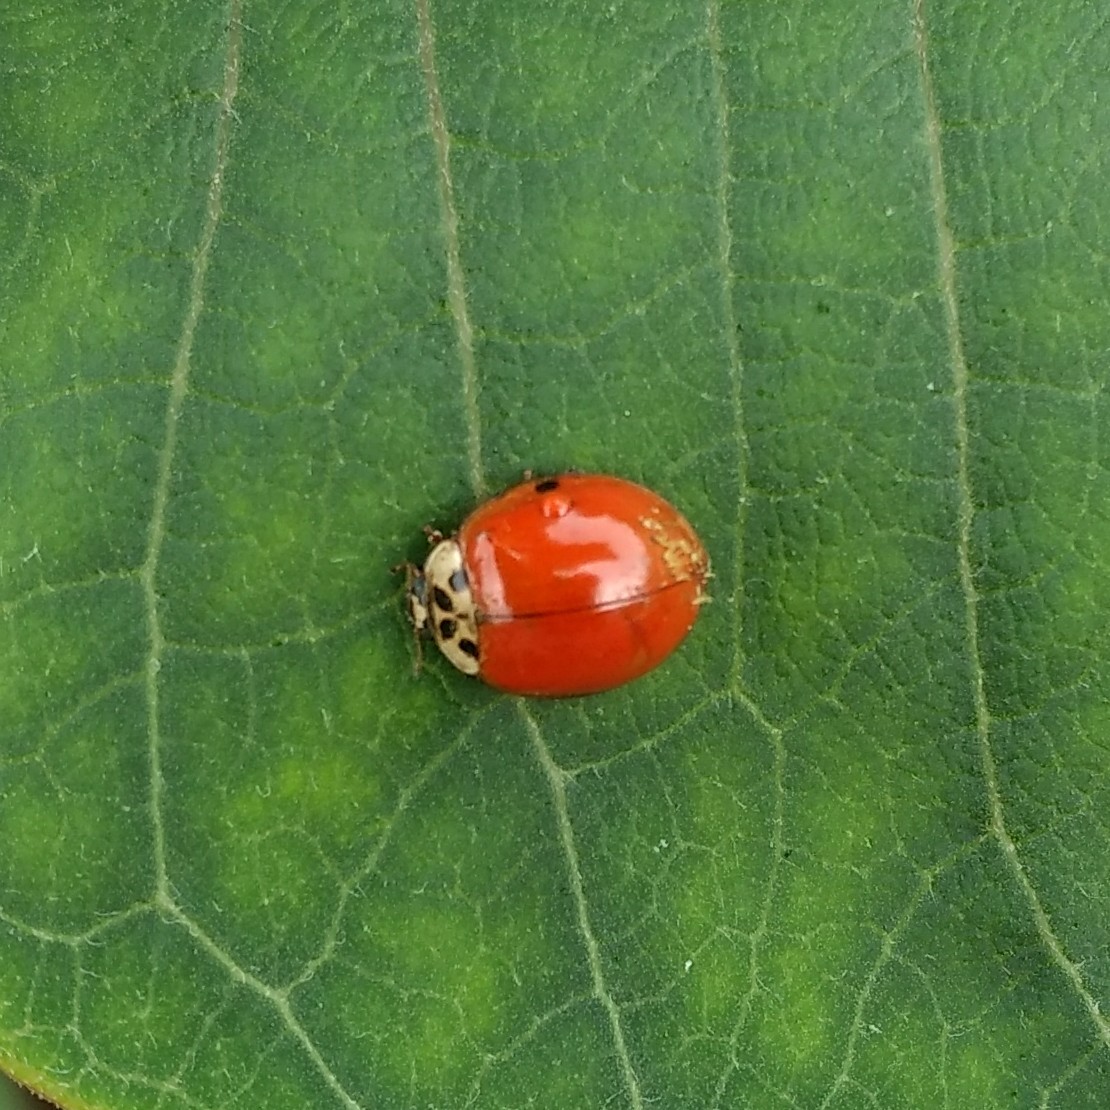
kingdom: Fungi
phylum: Ascomycota
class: Laboulbeniomycetes
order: Laboulbeniales
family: Laboulbeniaceae
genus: Hesperomyces
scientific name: Hesperomyces harmoniae
